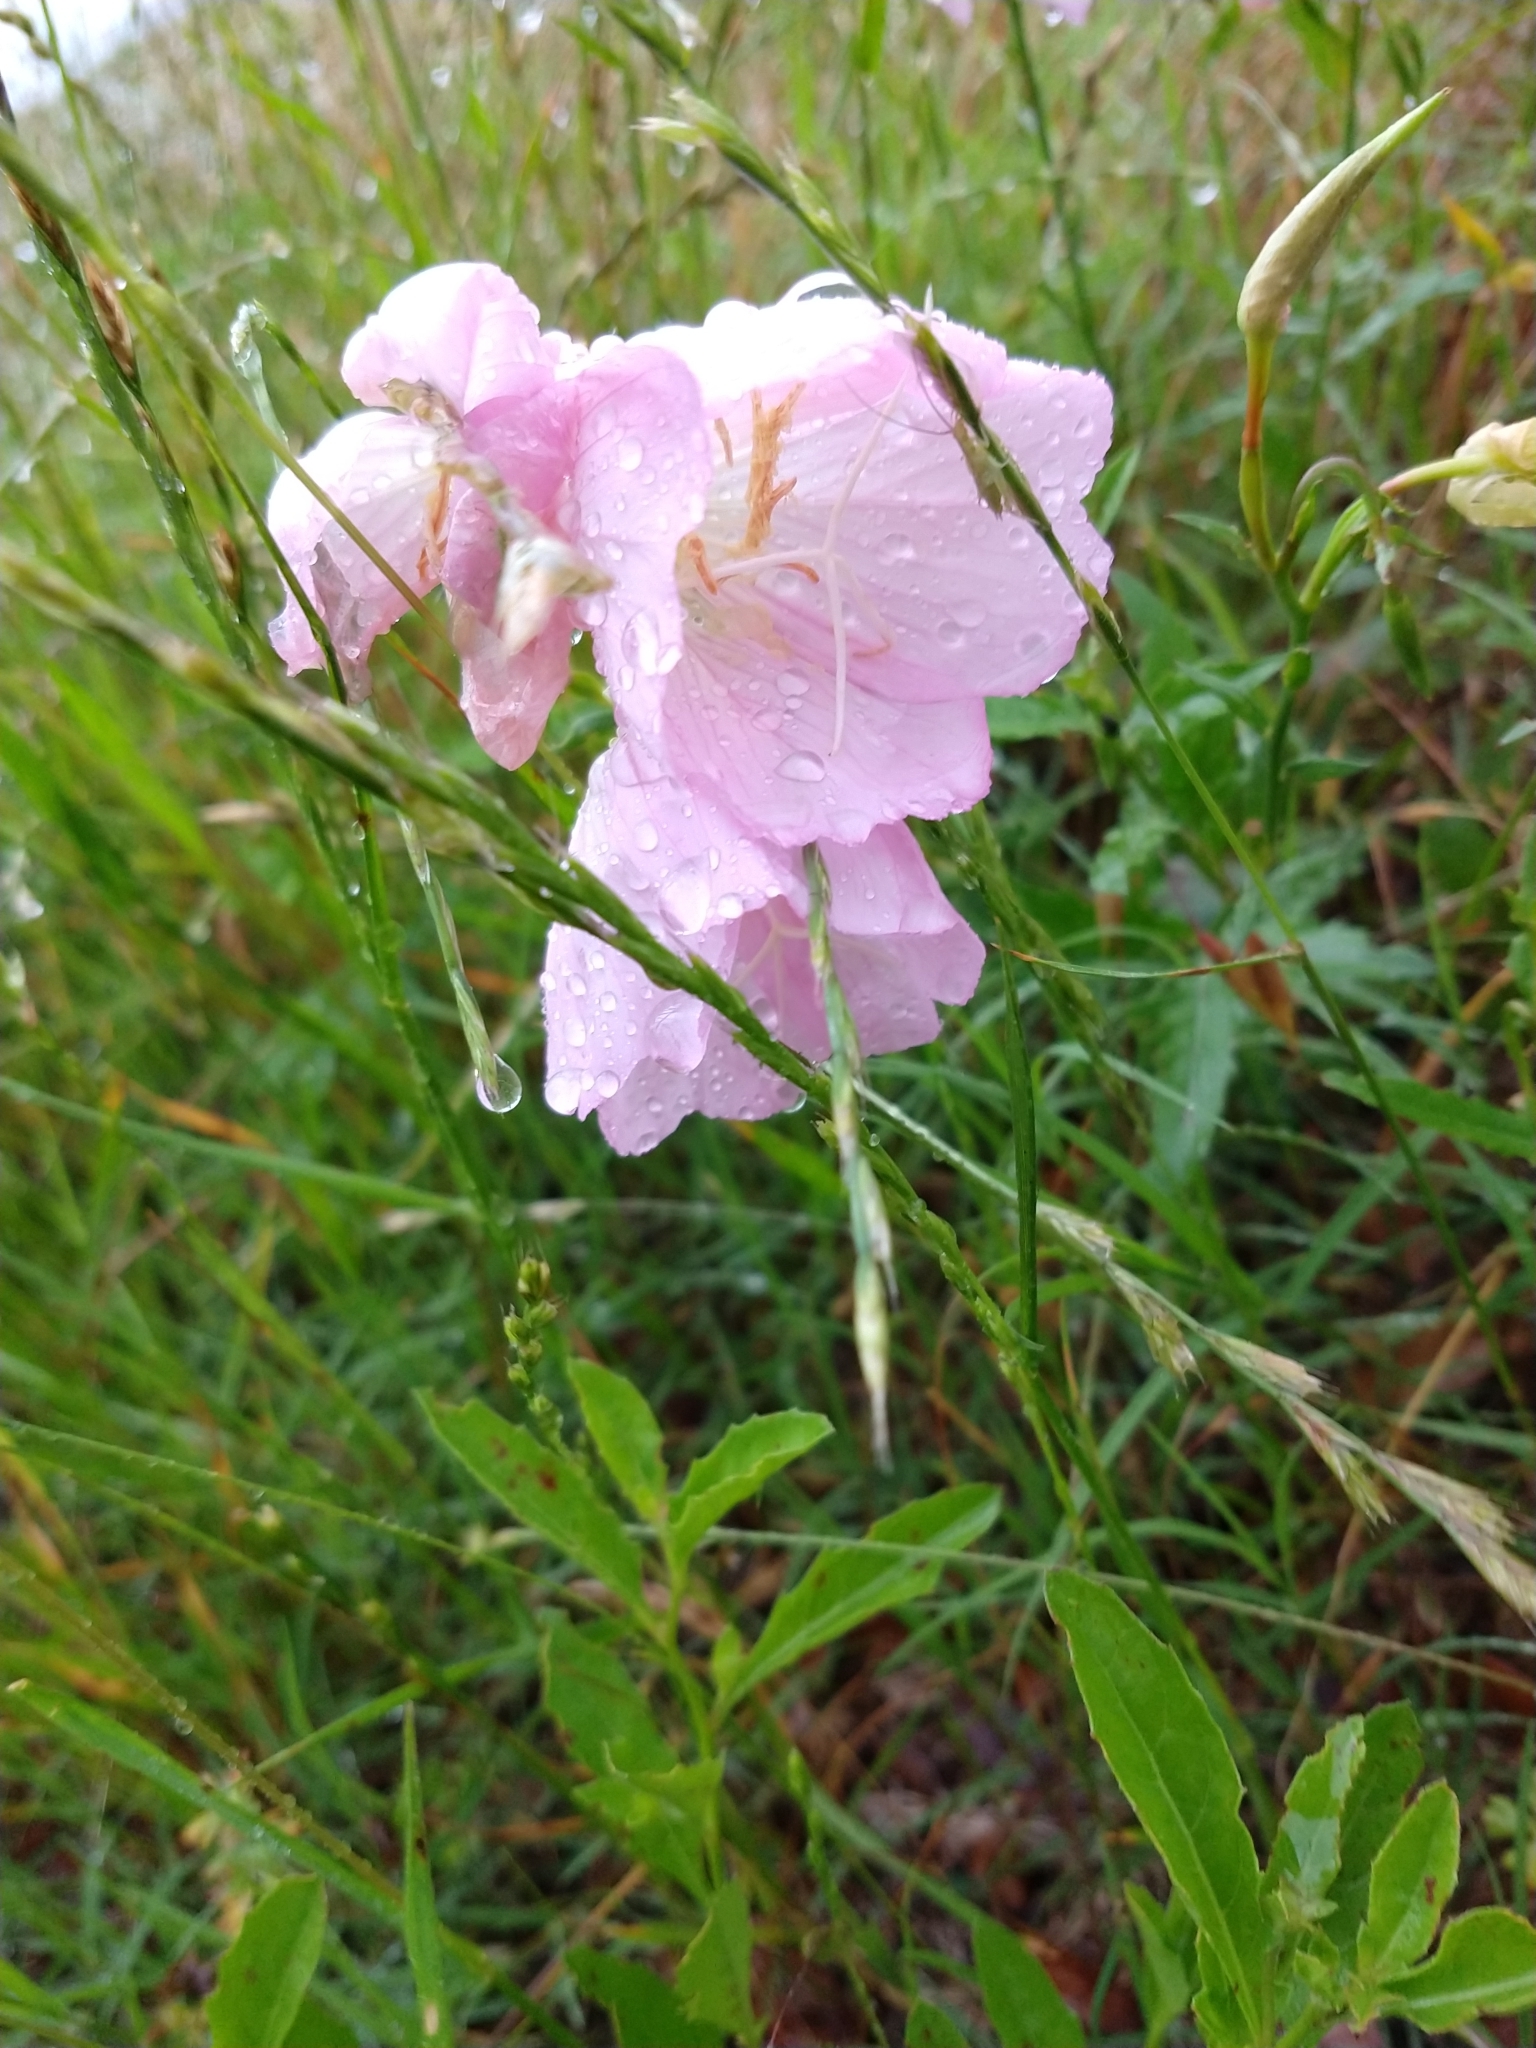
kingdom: Plantae
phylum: Tracheophyta
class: Magnoliopsida
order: Myrtales
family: Onagraceae
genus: Oenothera
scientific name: Oenothera speciosa
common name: White evening-primrose
